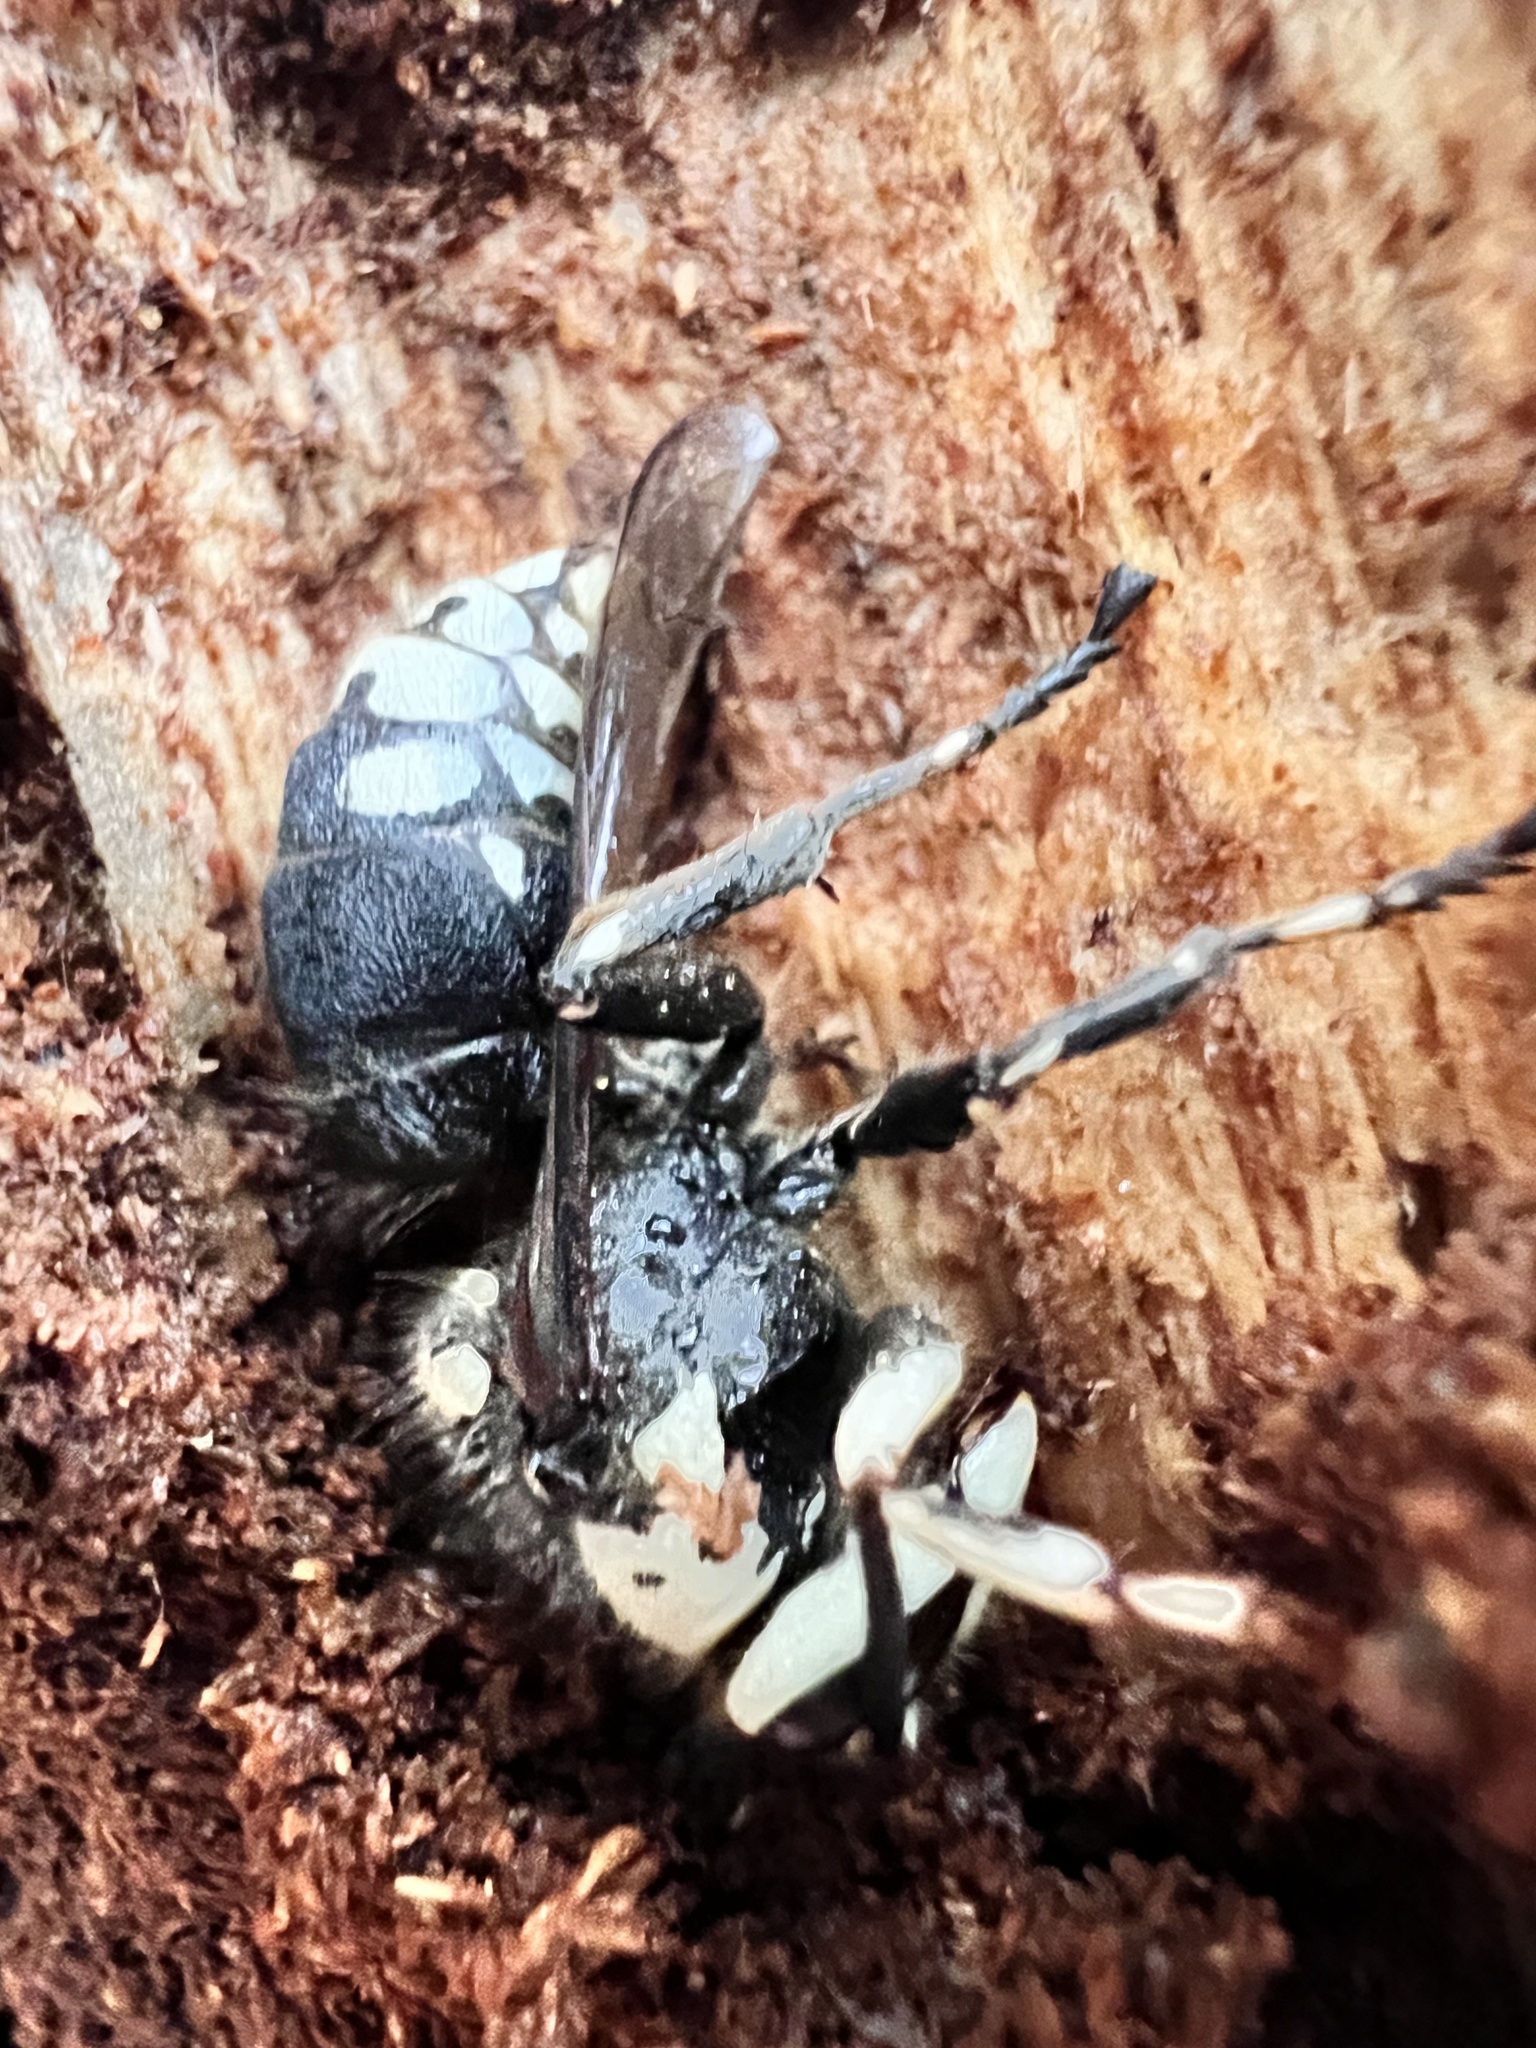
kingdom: Animalia
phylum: Arthropoda
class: Insecta
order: Hymenoptera
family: Vespidae
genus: Dolichovespula
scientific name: Dolichovespula maculata
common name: Bald-faced hornet
